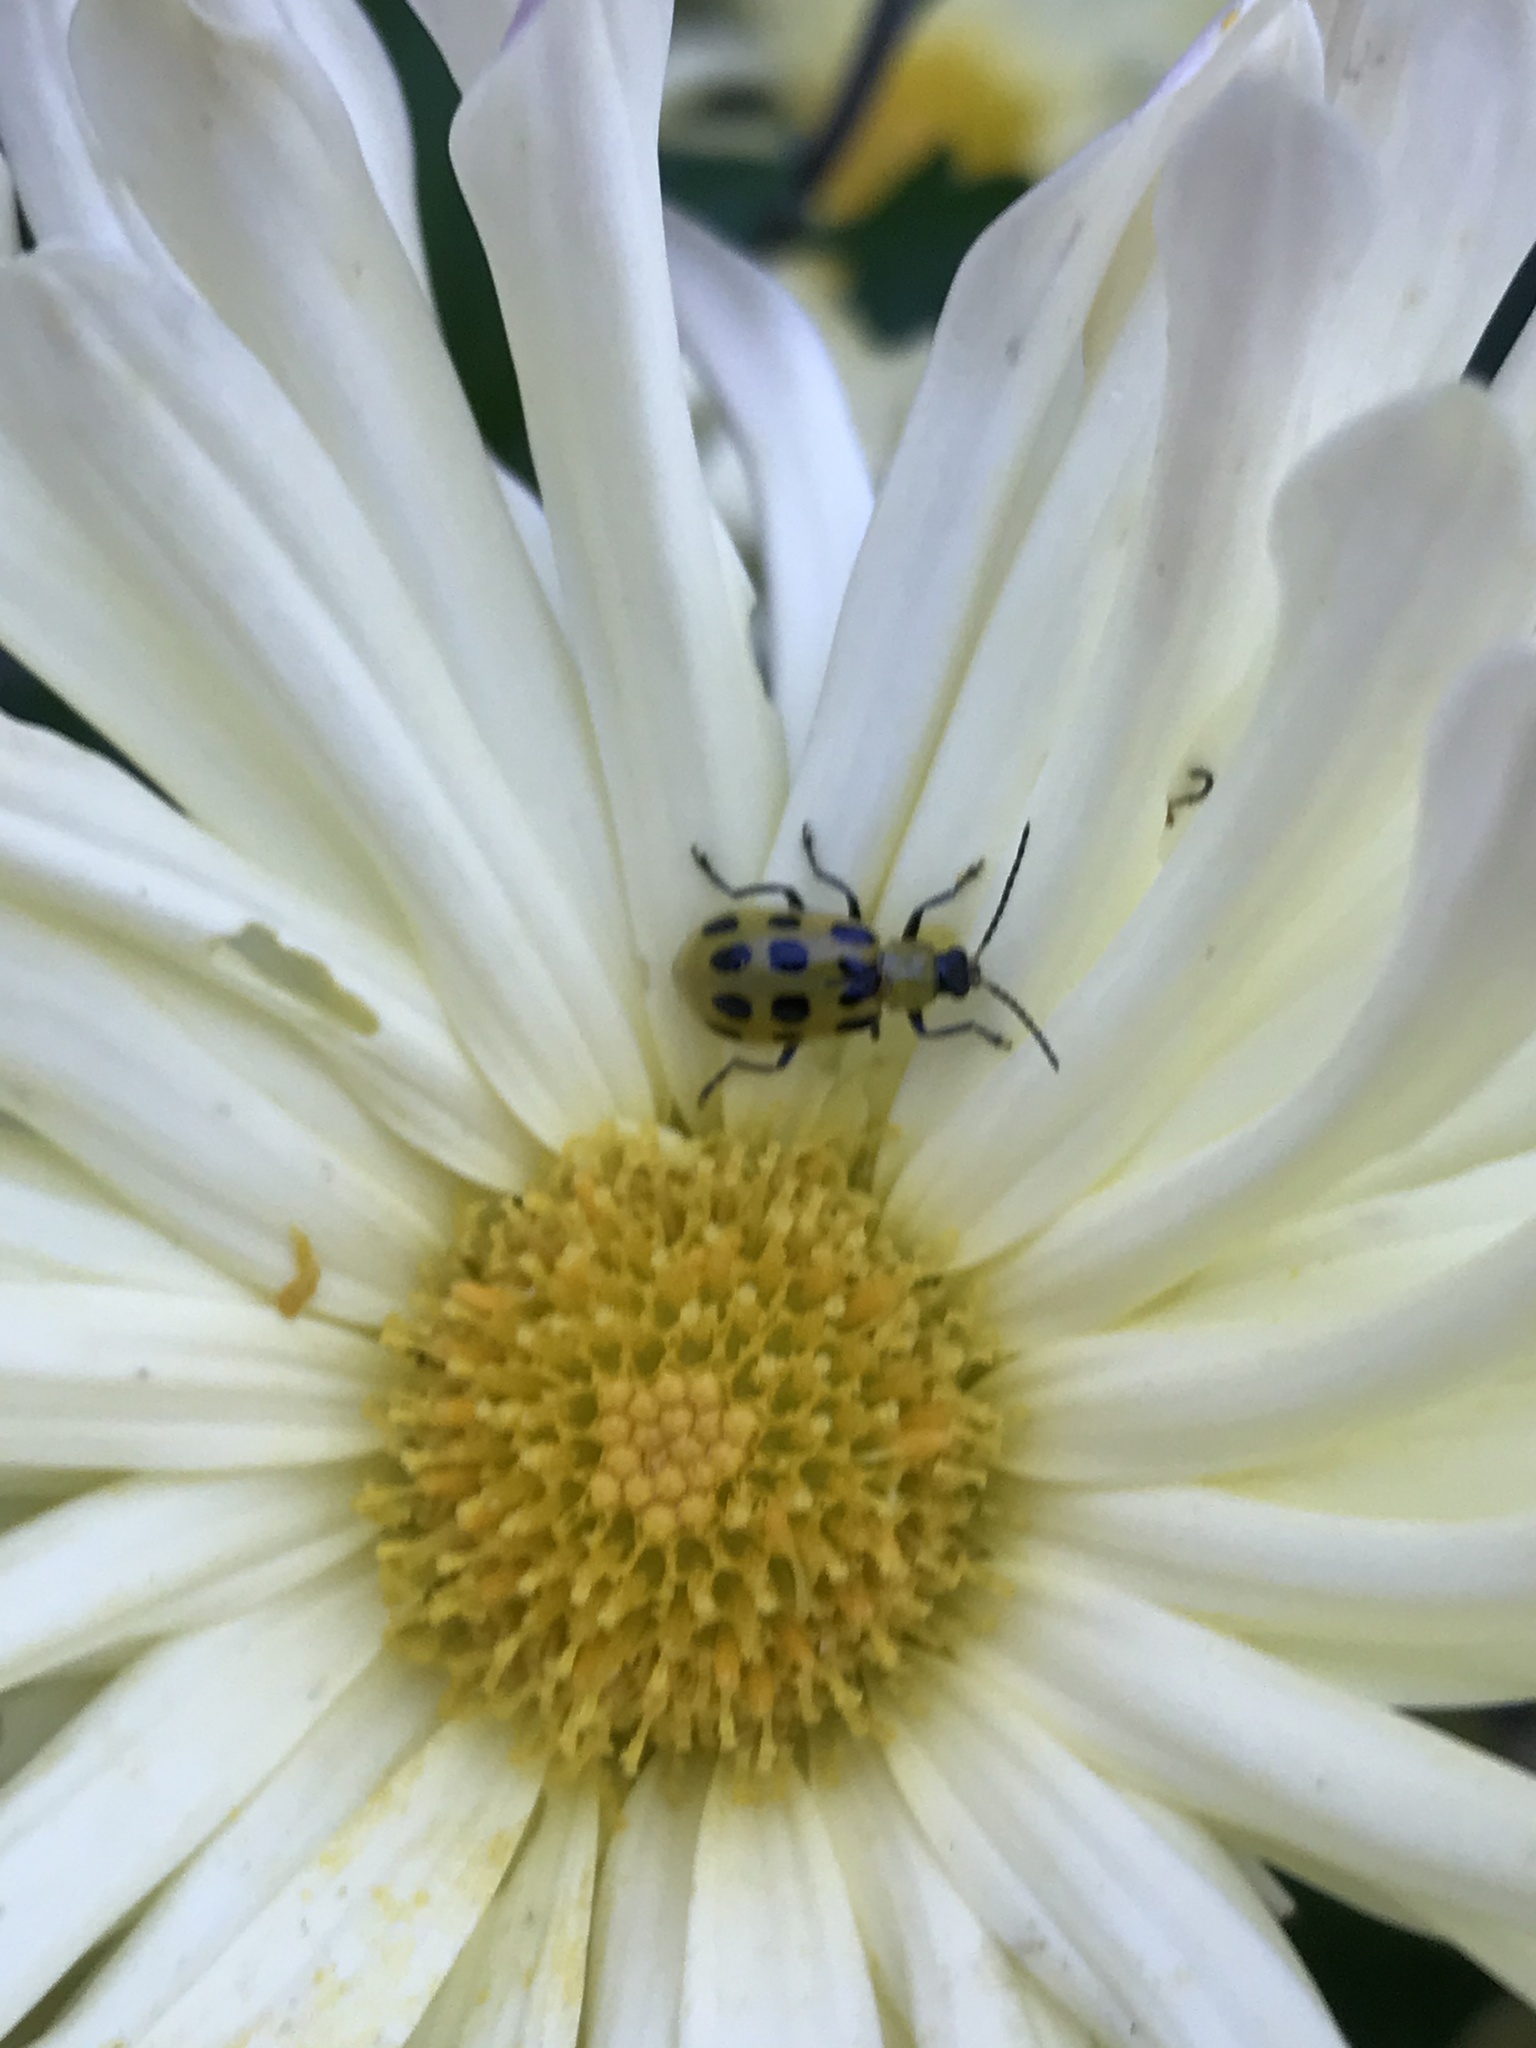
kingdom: Animalia
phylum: Arthropoda
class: Insecta
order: Coleoptera
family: Chrysomelidae
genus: Diabrotica
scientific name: Diabrotica undecimpunctata
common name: Spotted cucumber beetle
